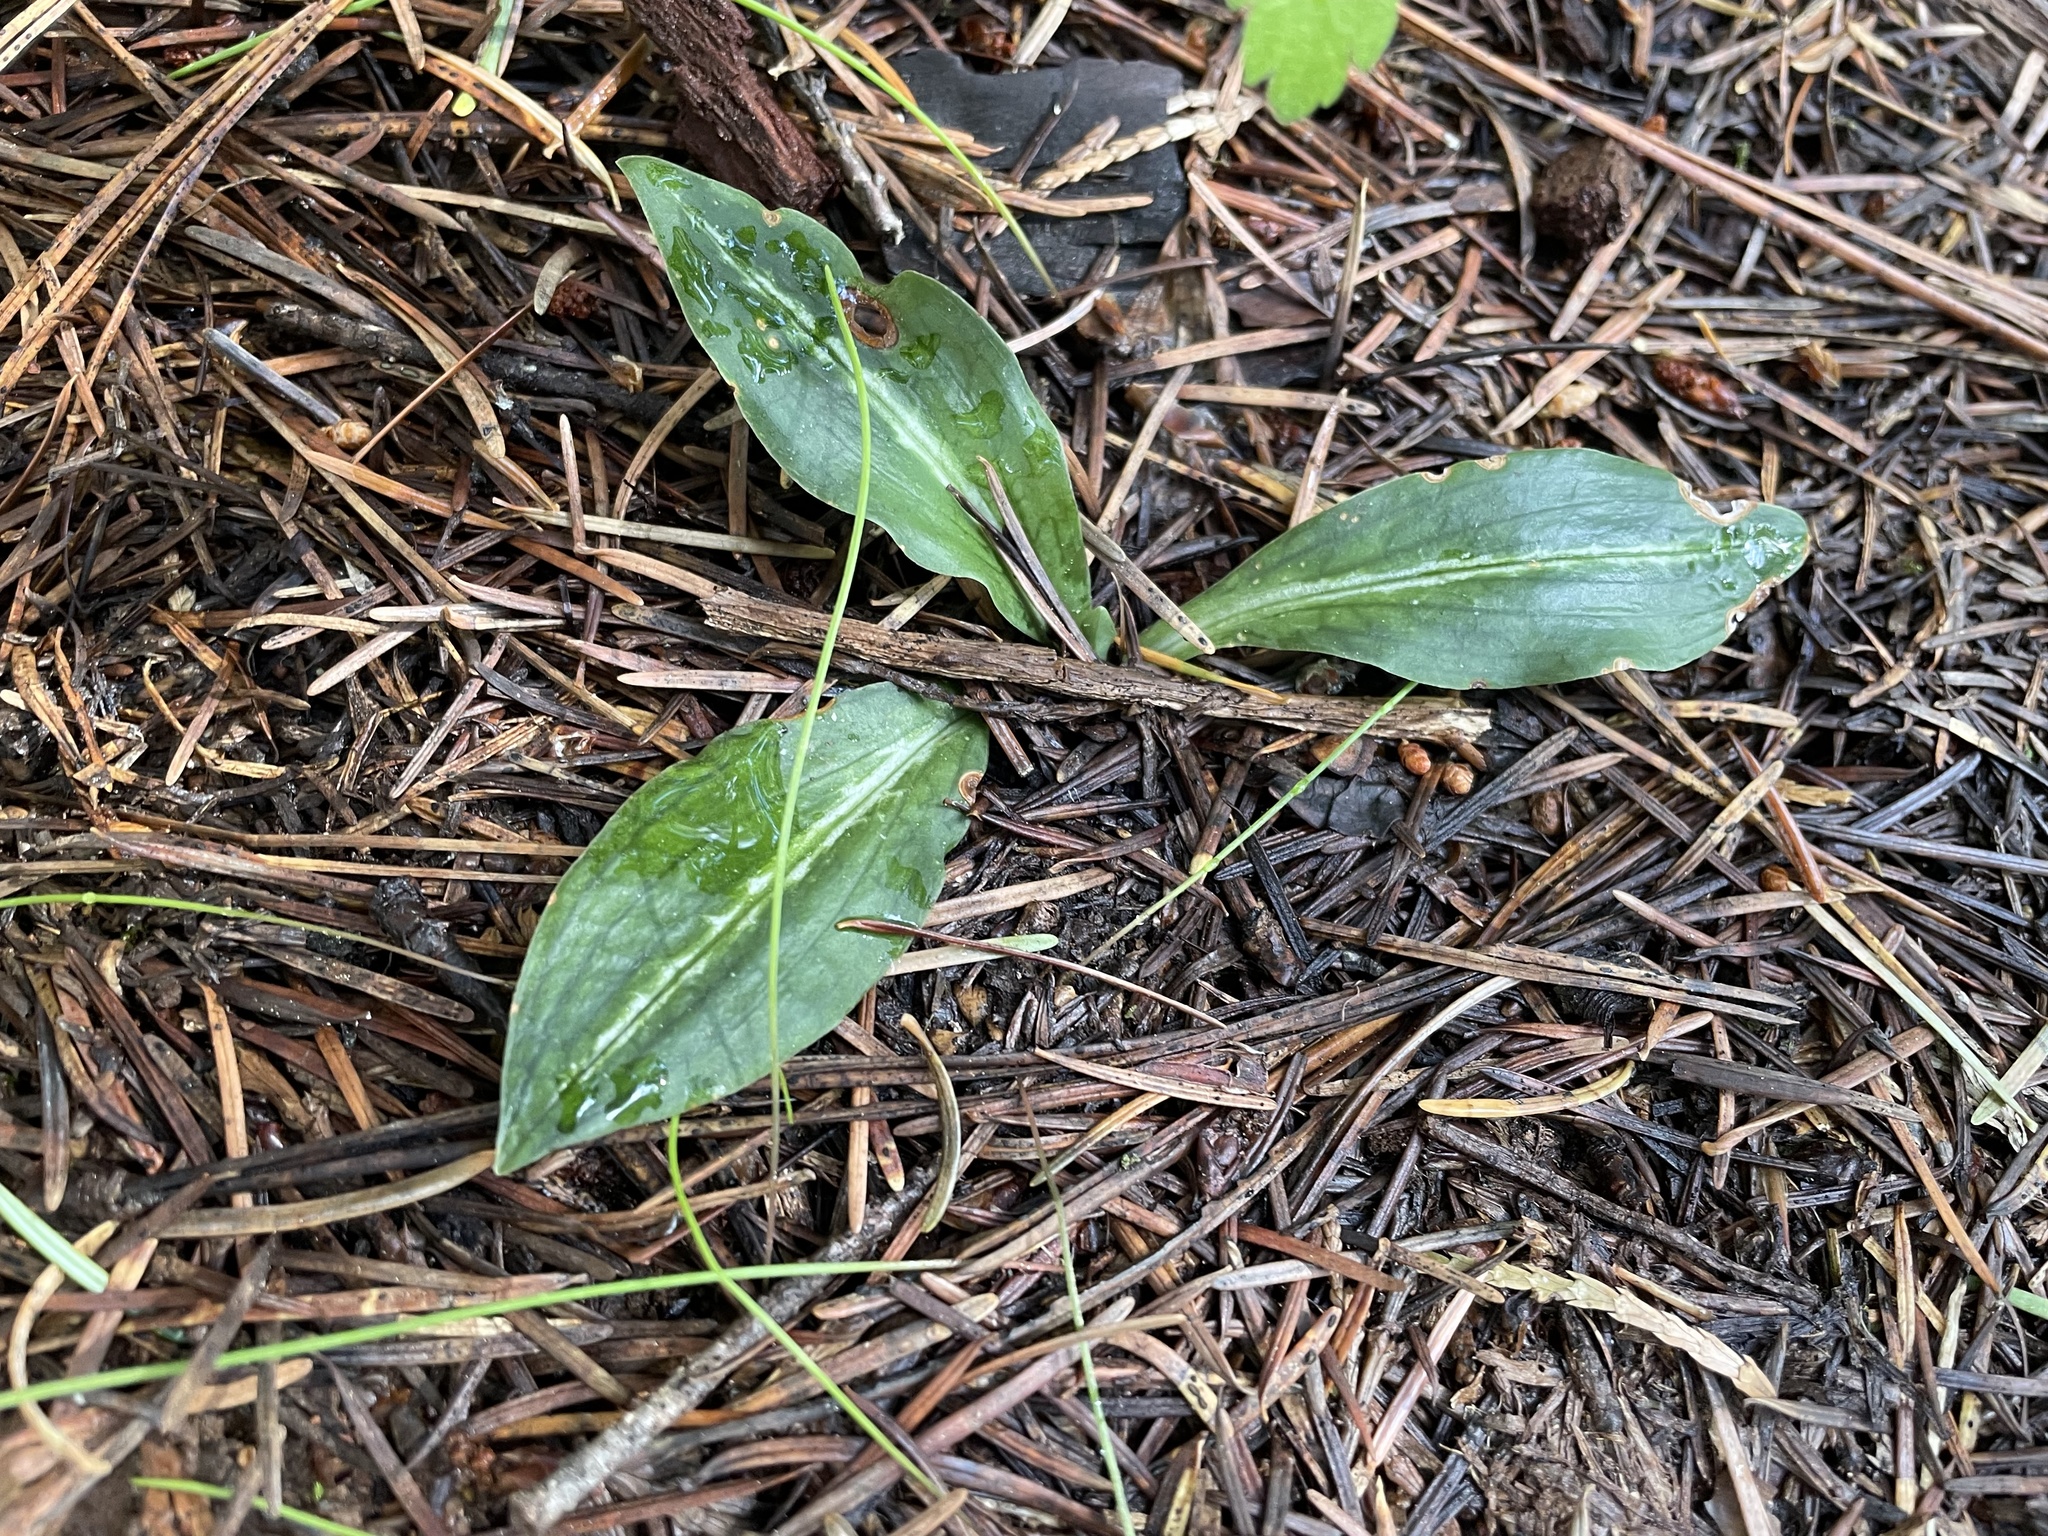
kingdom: Plantae
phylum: Tracheophyta
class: Liliopsida
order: Asparagales
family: Orchidaceae
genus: Goodyera
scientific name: Goodyera oblongifolia
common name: Giant rattlesnake-plantain
